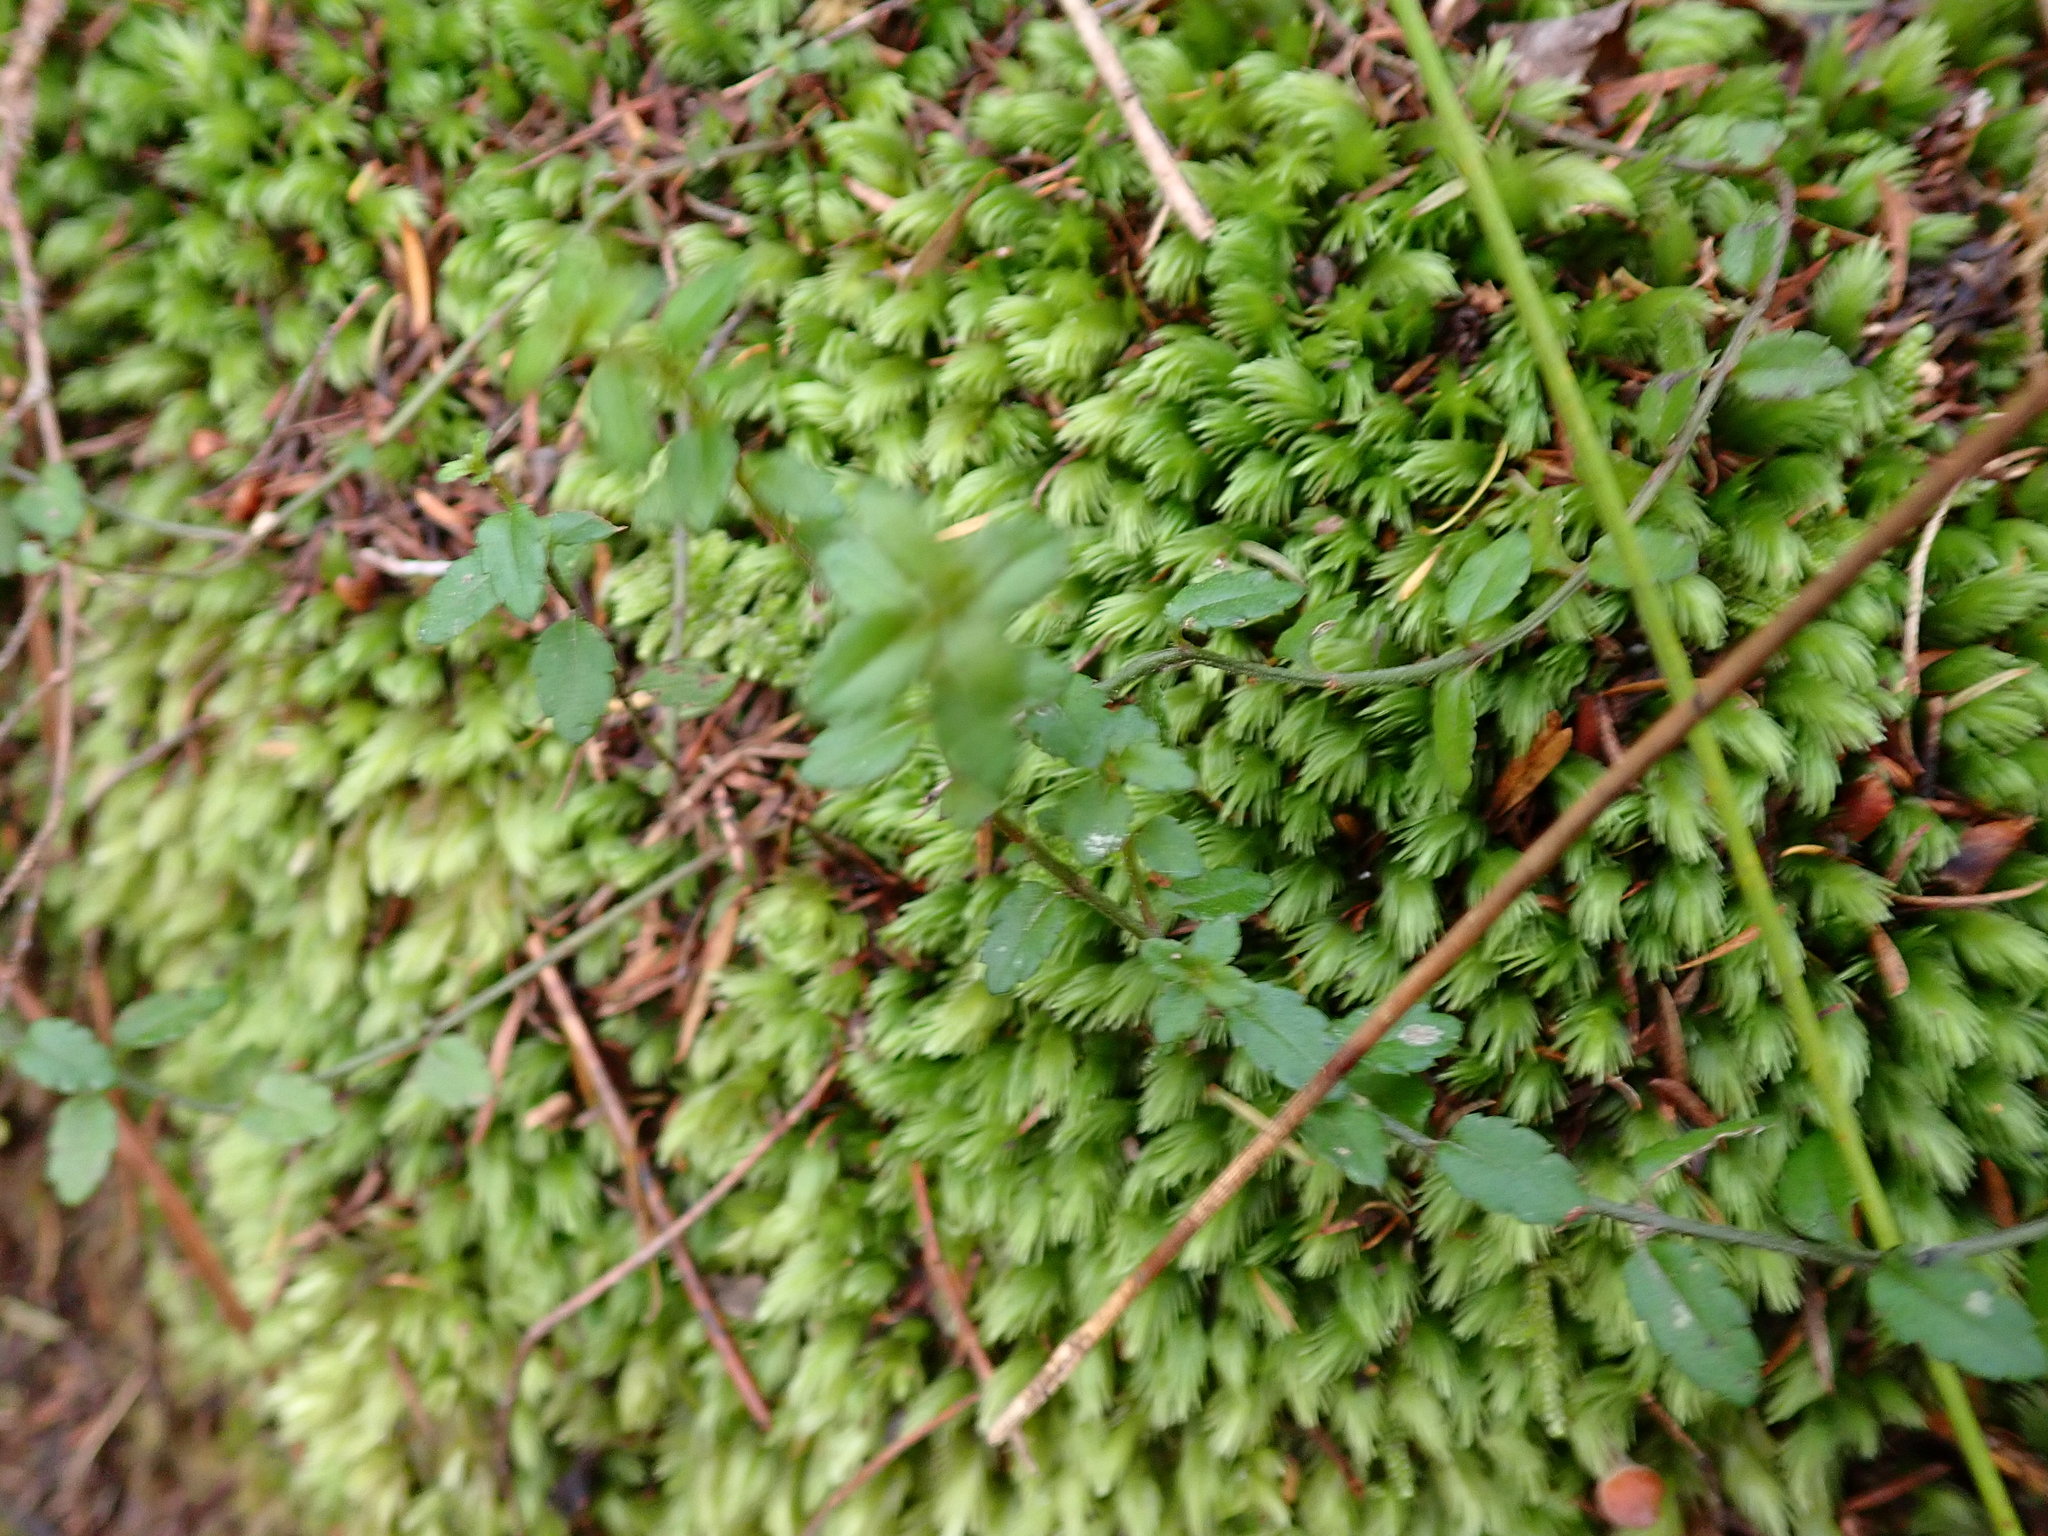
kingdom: Plantae
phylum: Tracheophyta
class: Magnoliopsida
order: Saxifragales
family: Haloragaceae
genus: Gonocarpus
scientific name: Gonocarpus incanus
